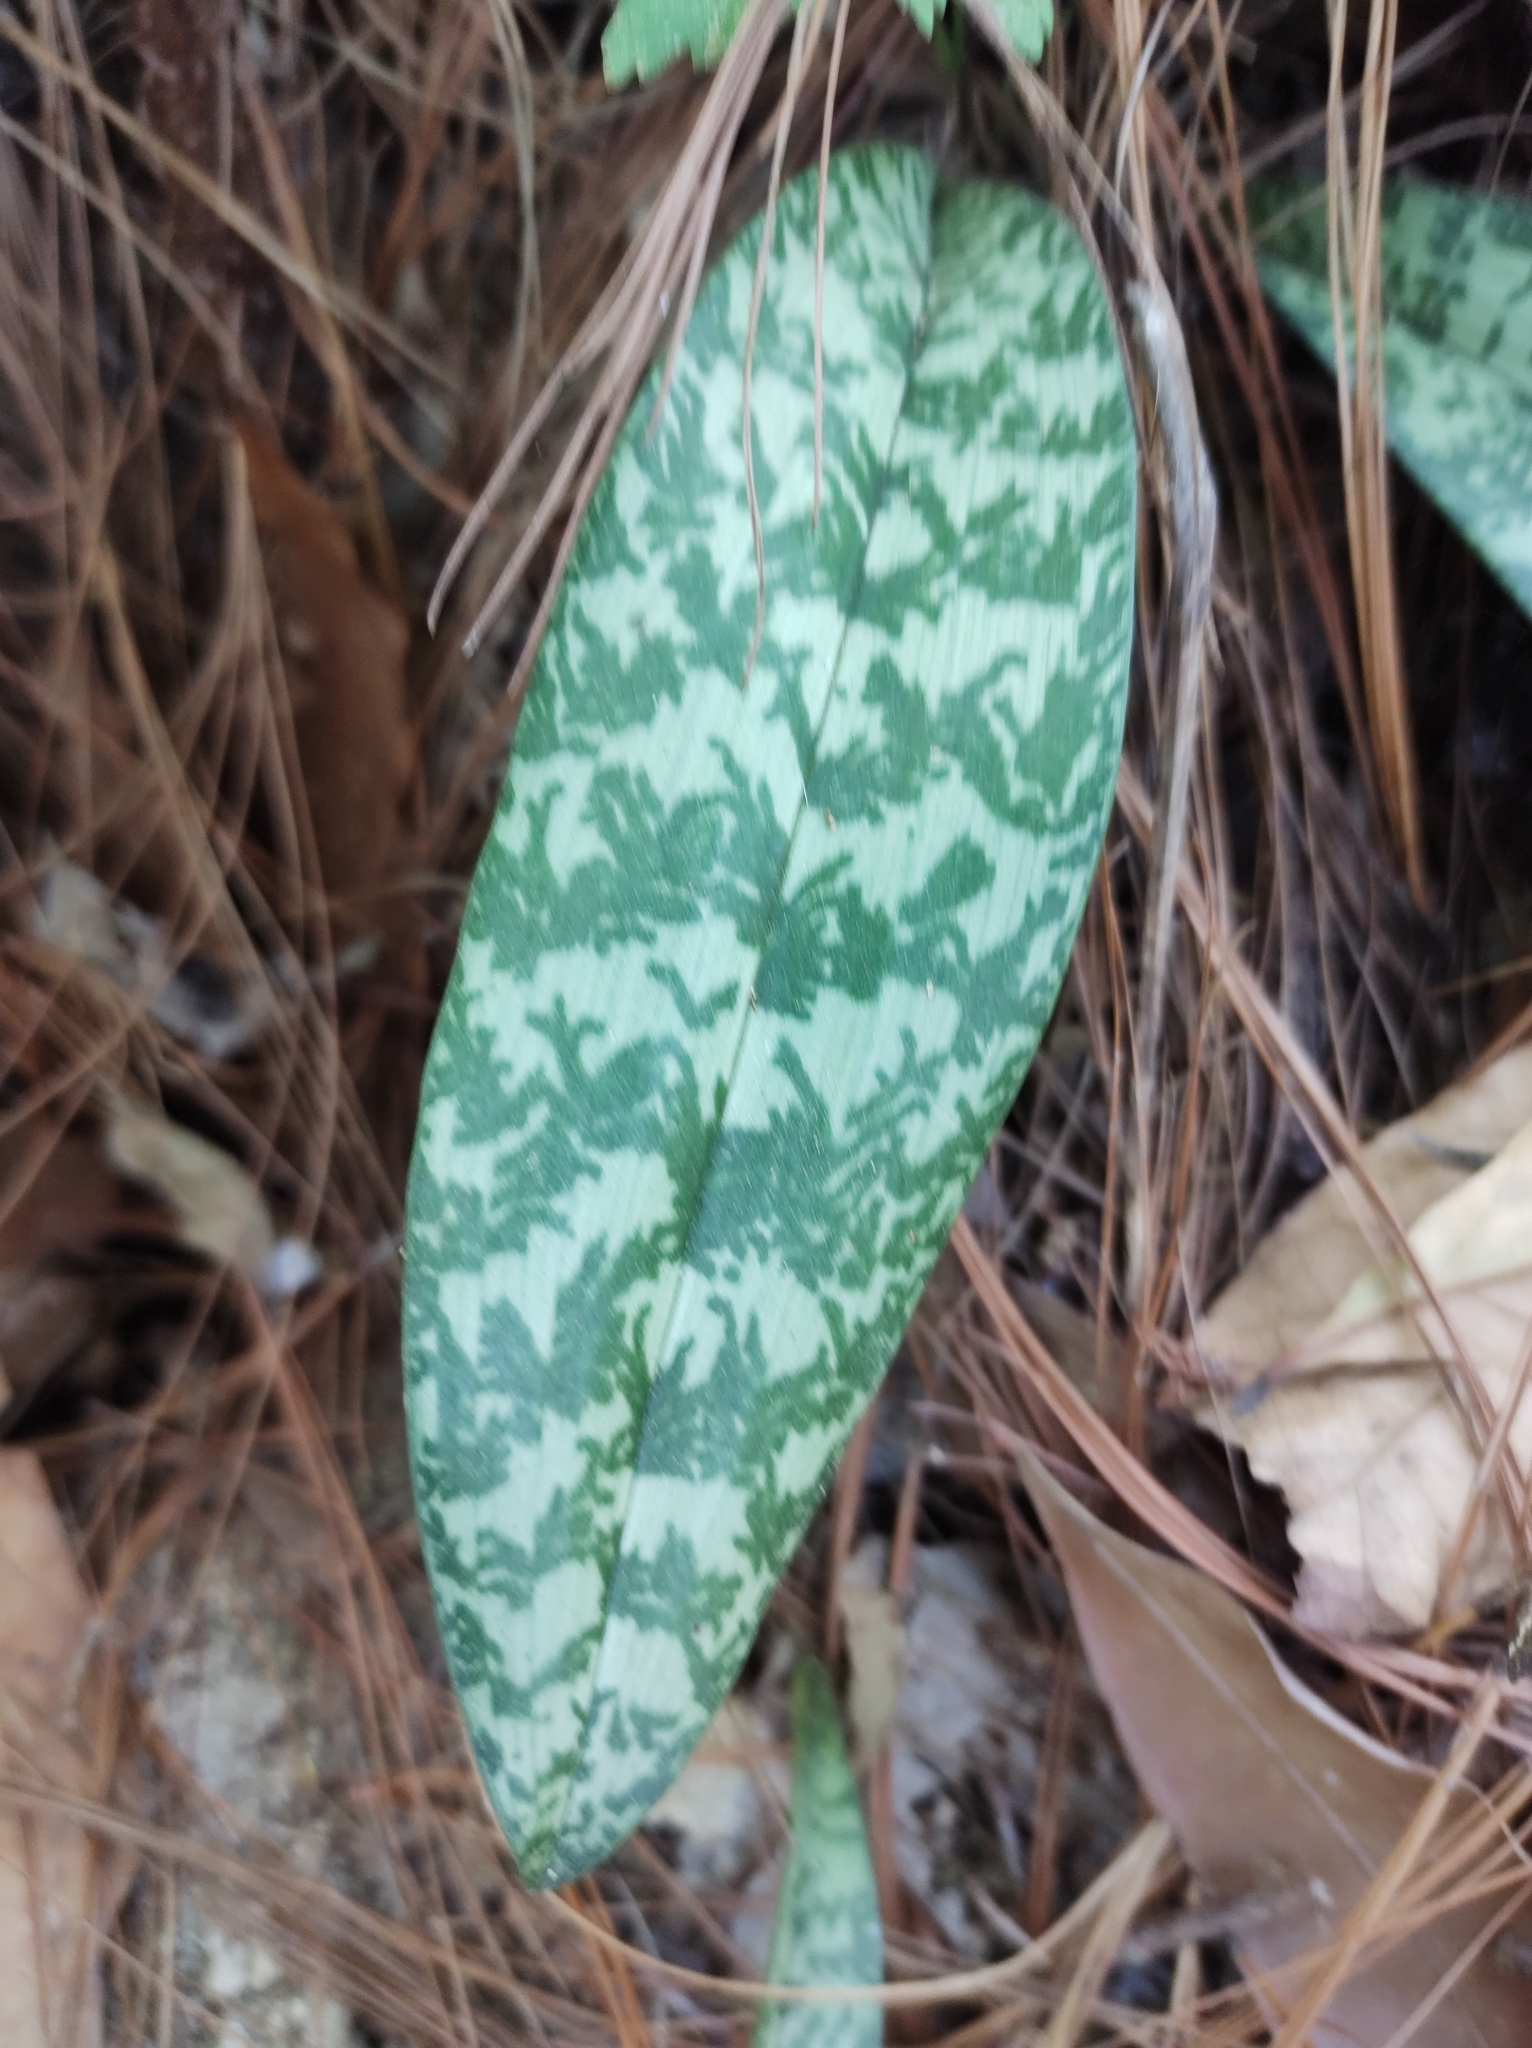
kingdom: Plantae
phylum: Tracheophyta
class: Liliopsida
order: Asparagales
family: Orchidaceae
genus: Eulophia
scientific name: Eulophia maculata
